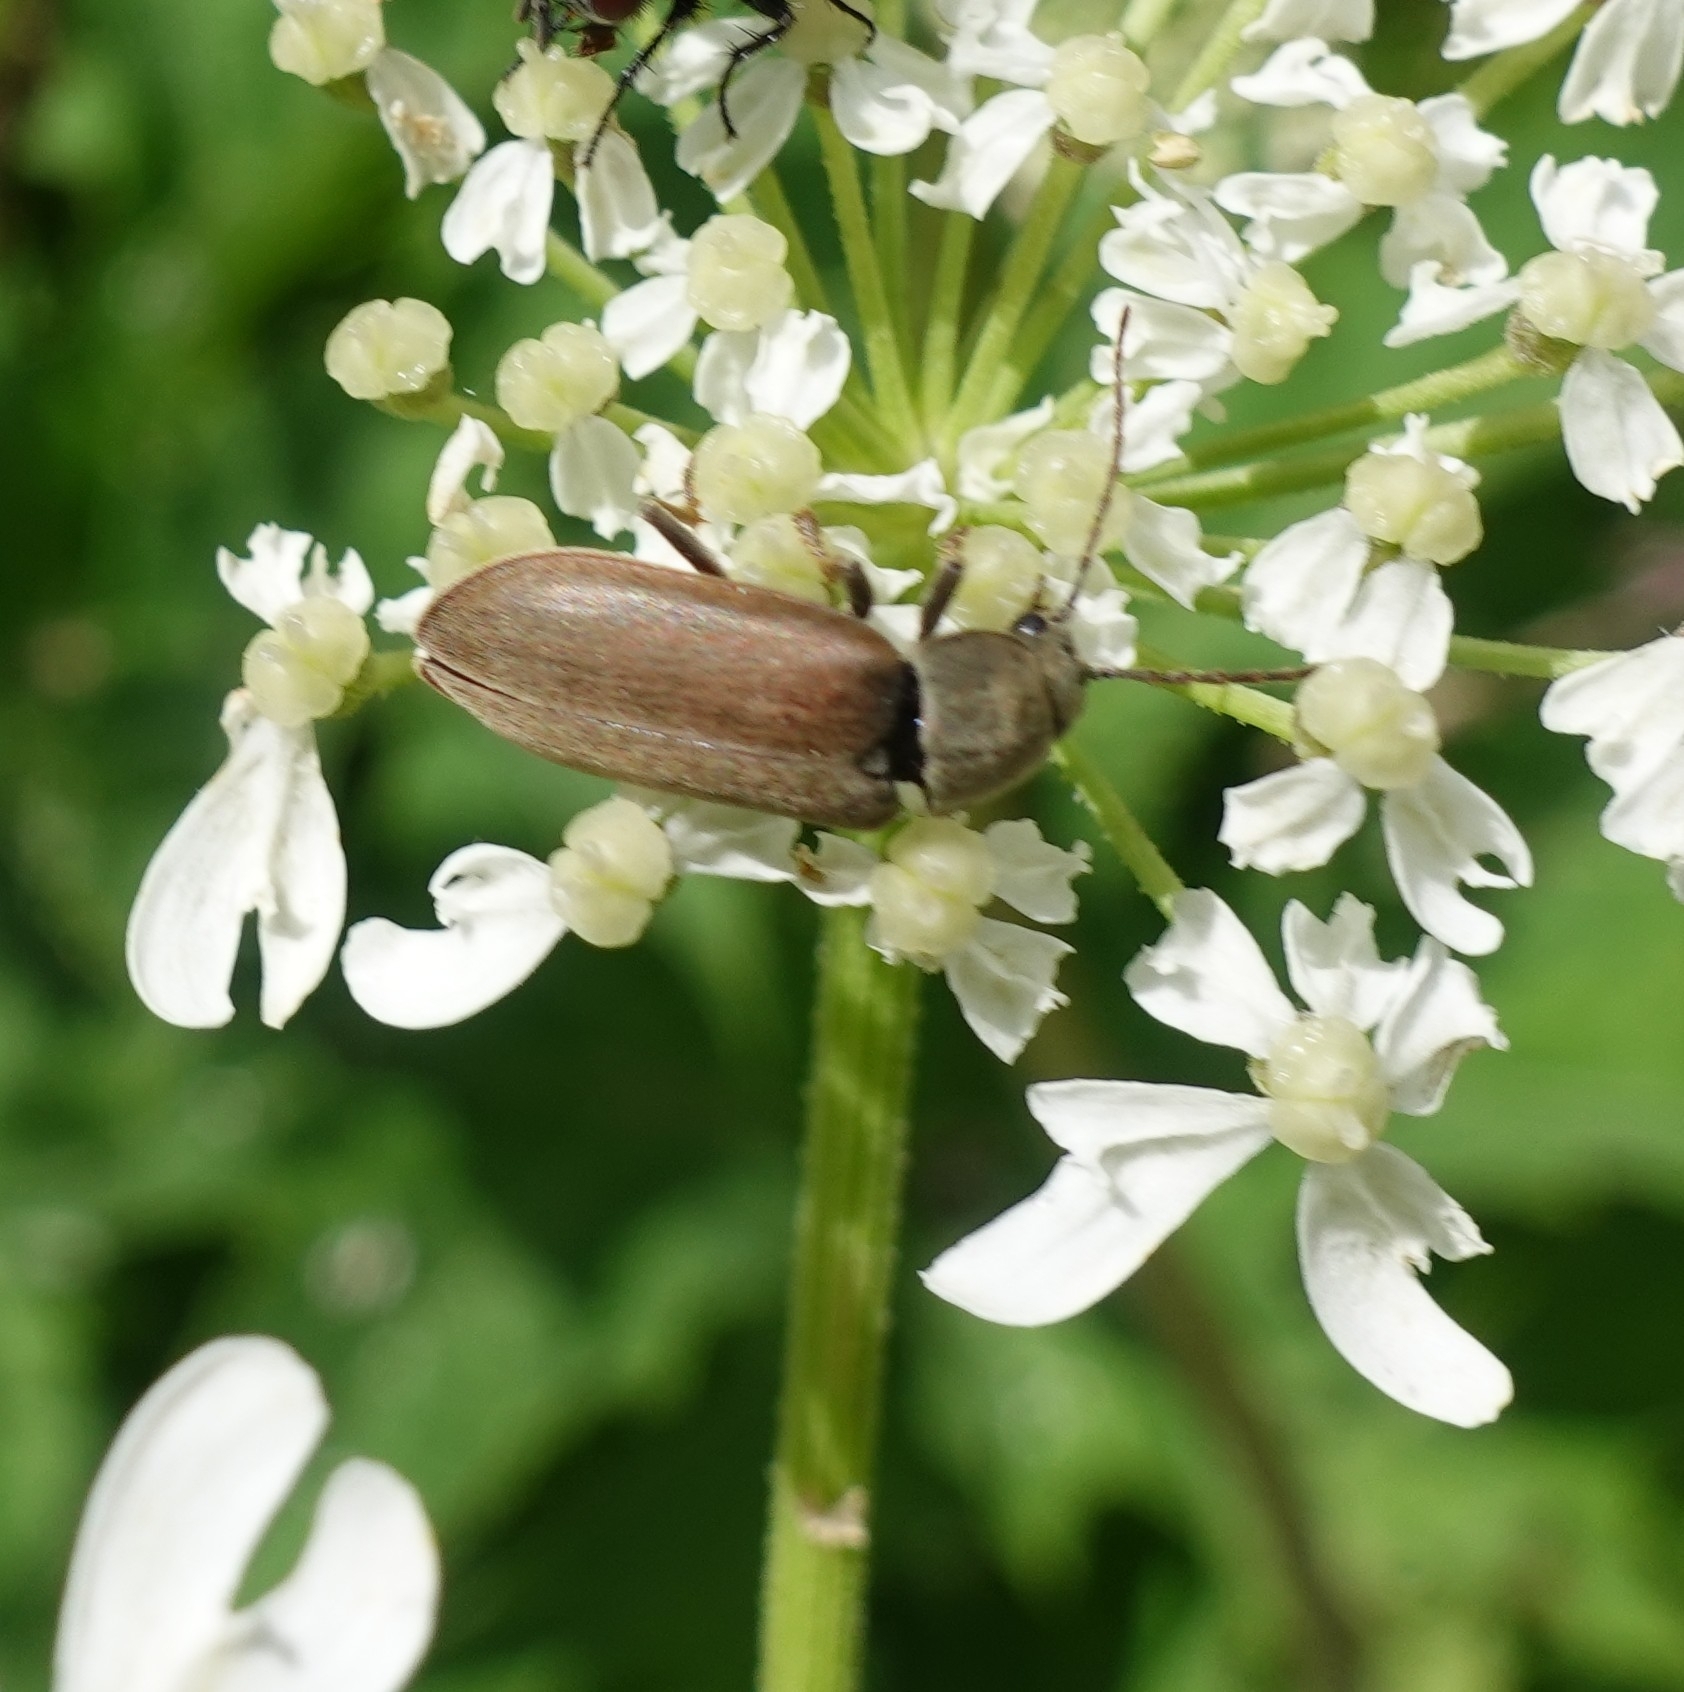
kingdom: Animalia
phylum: Arthropoda
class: Insecta
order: Coleoptera
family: Dascillidae
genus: Dascillus
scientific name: Dascillus cervinus
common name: Orchid beetle
